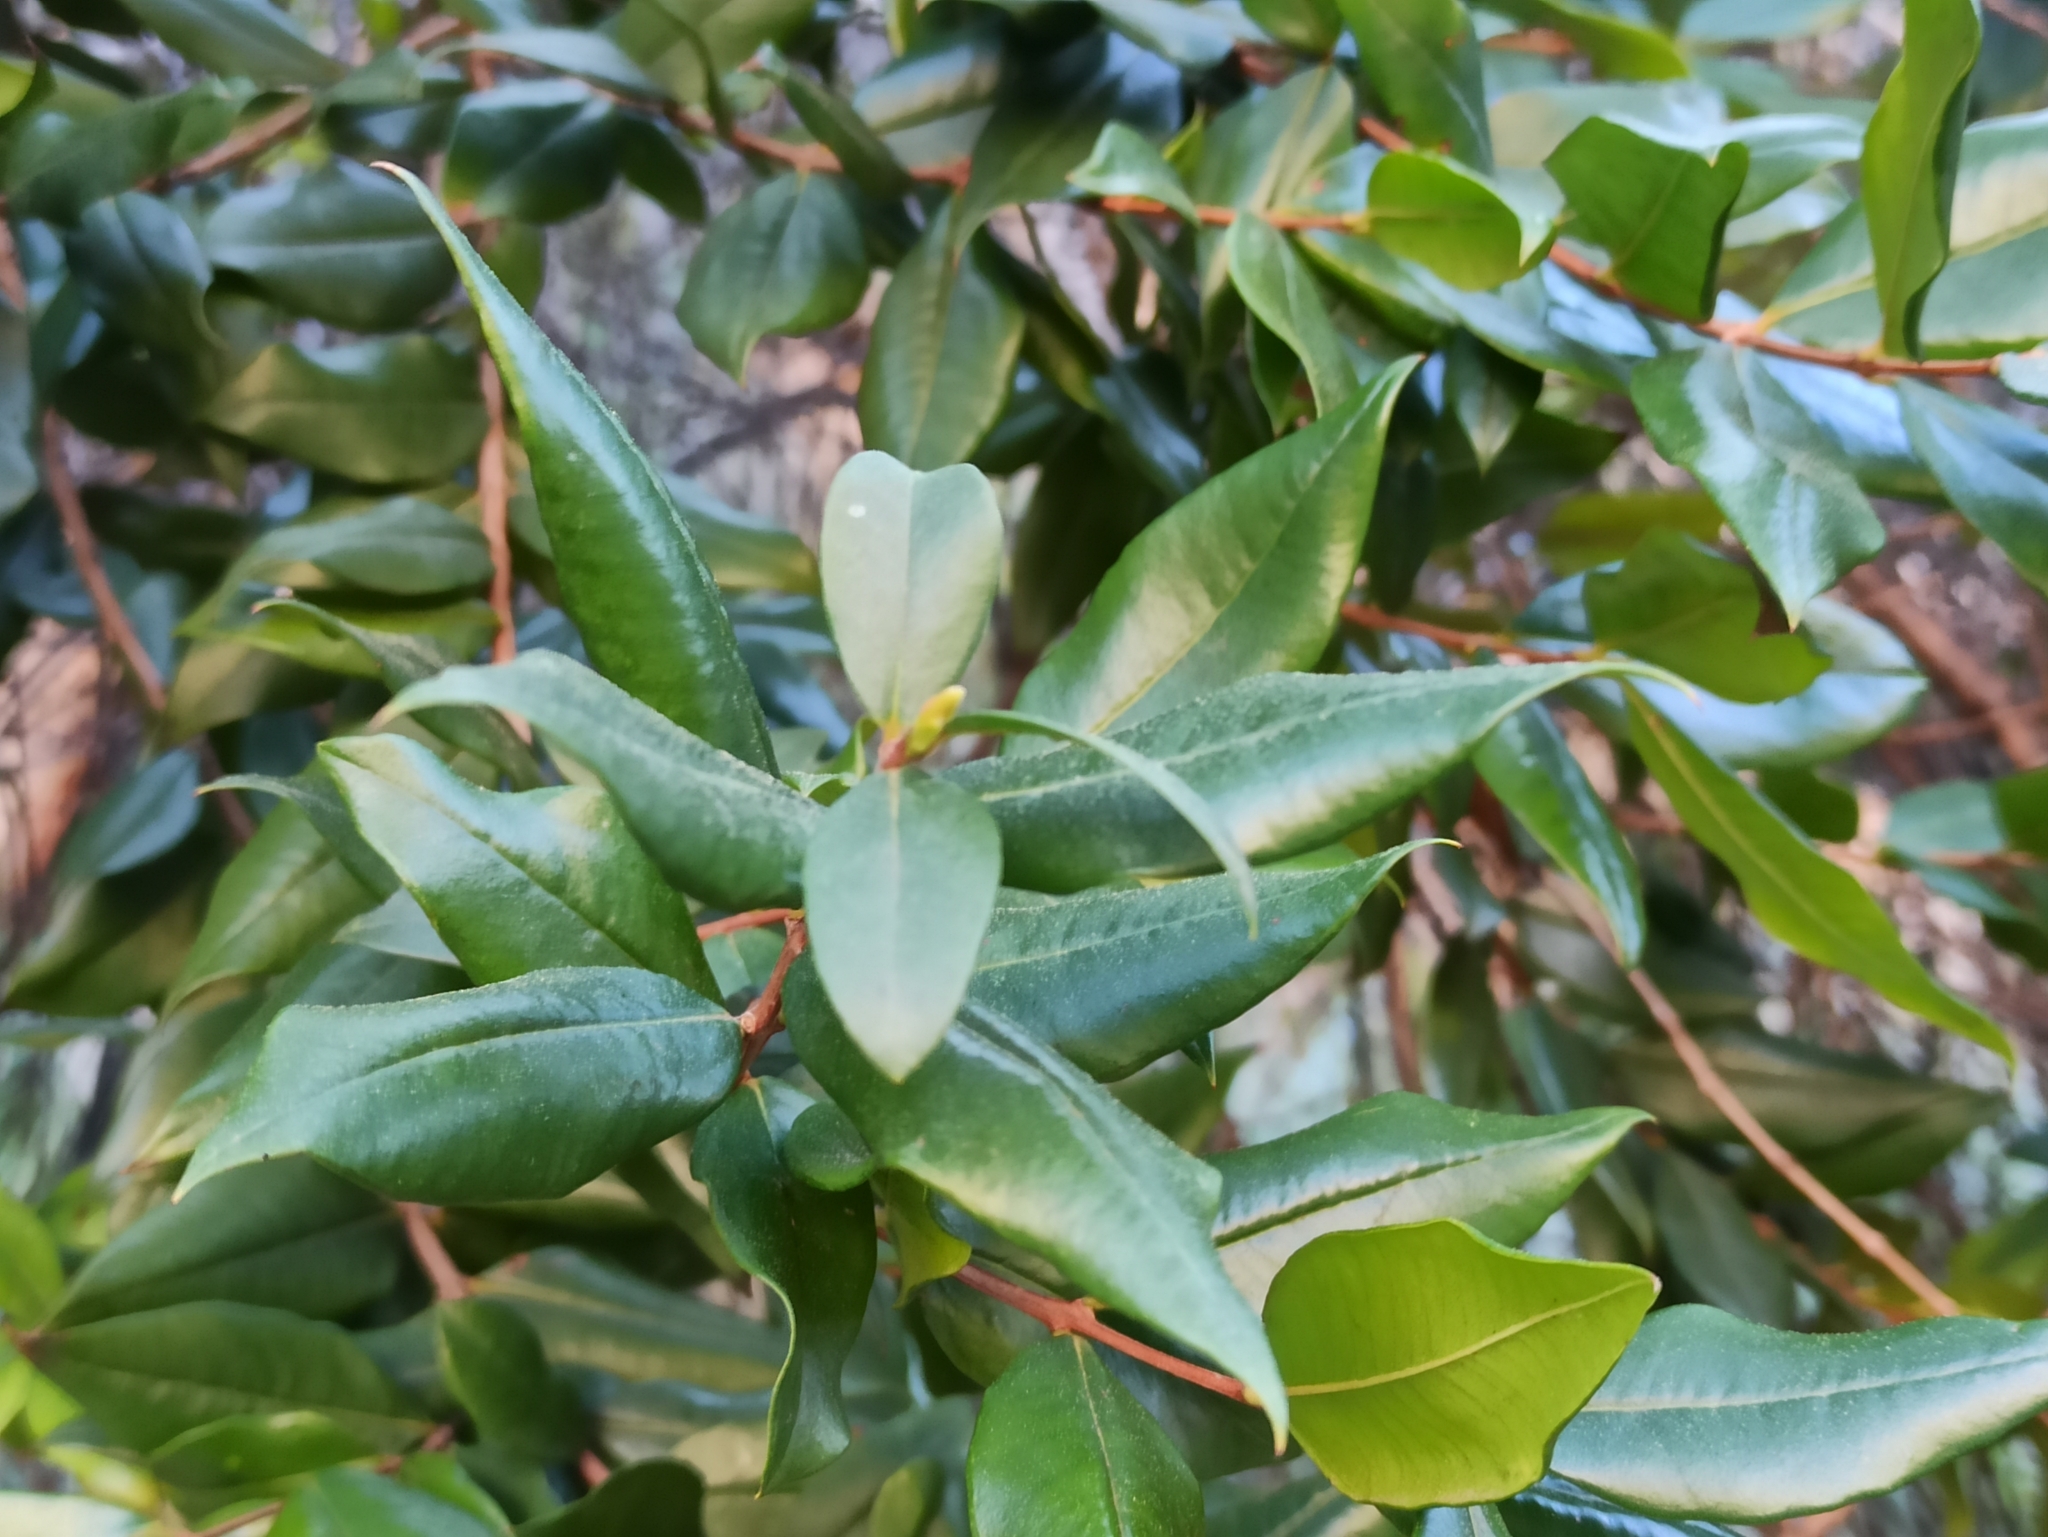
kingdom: Plantae
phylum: Tracheophyta
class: Magnoliopsida
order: Myrtales
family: Myrtaceae
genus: Myrtus
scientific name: Myrtus communis
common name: Myrtle
